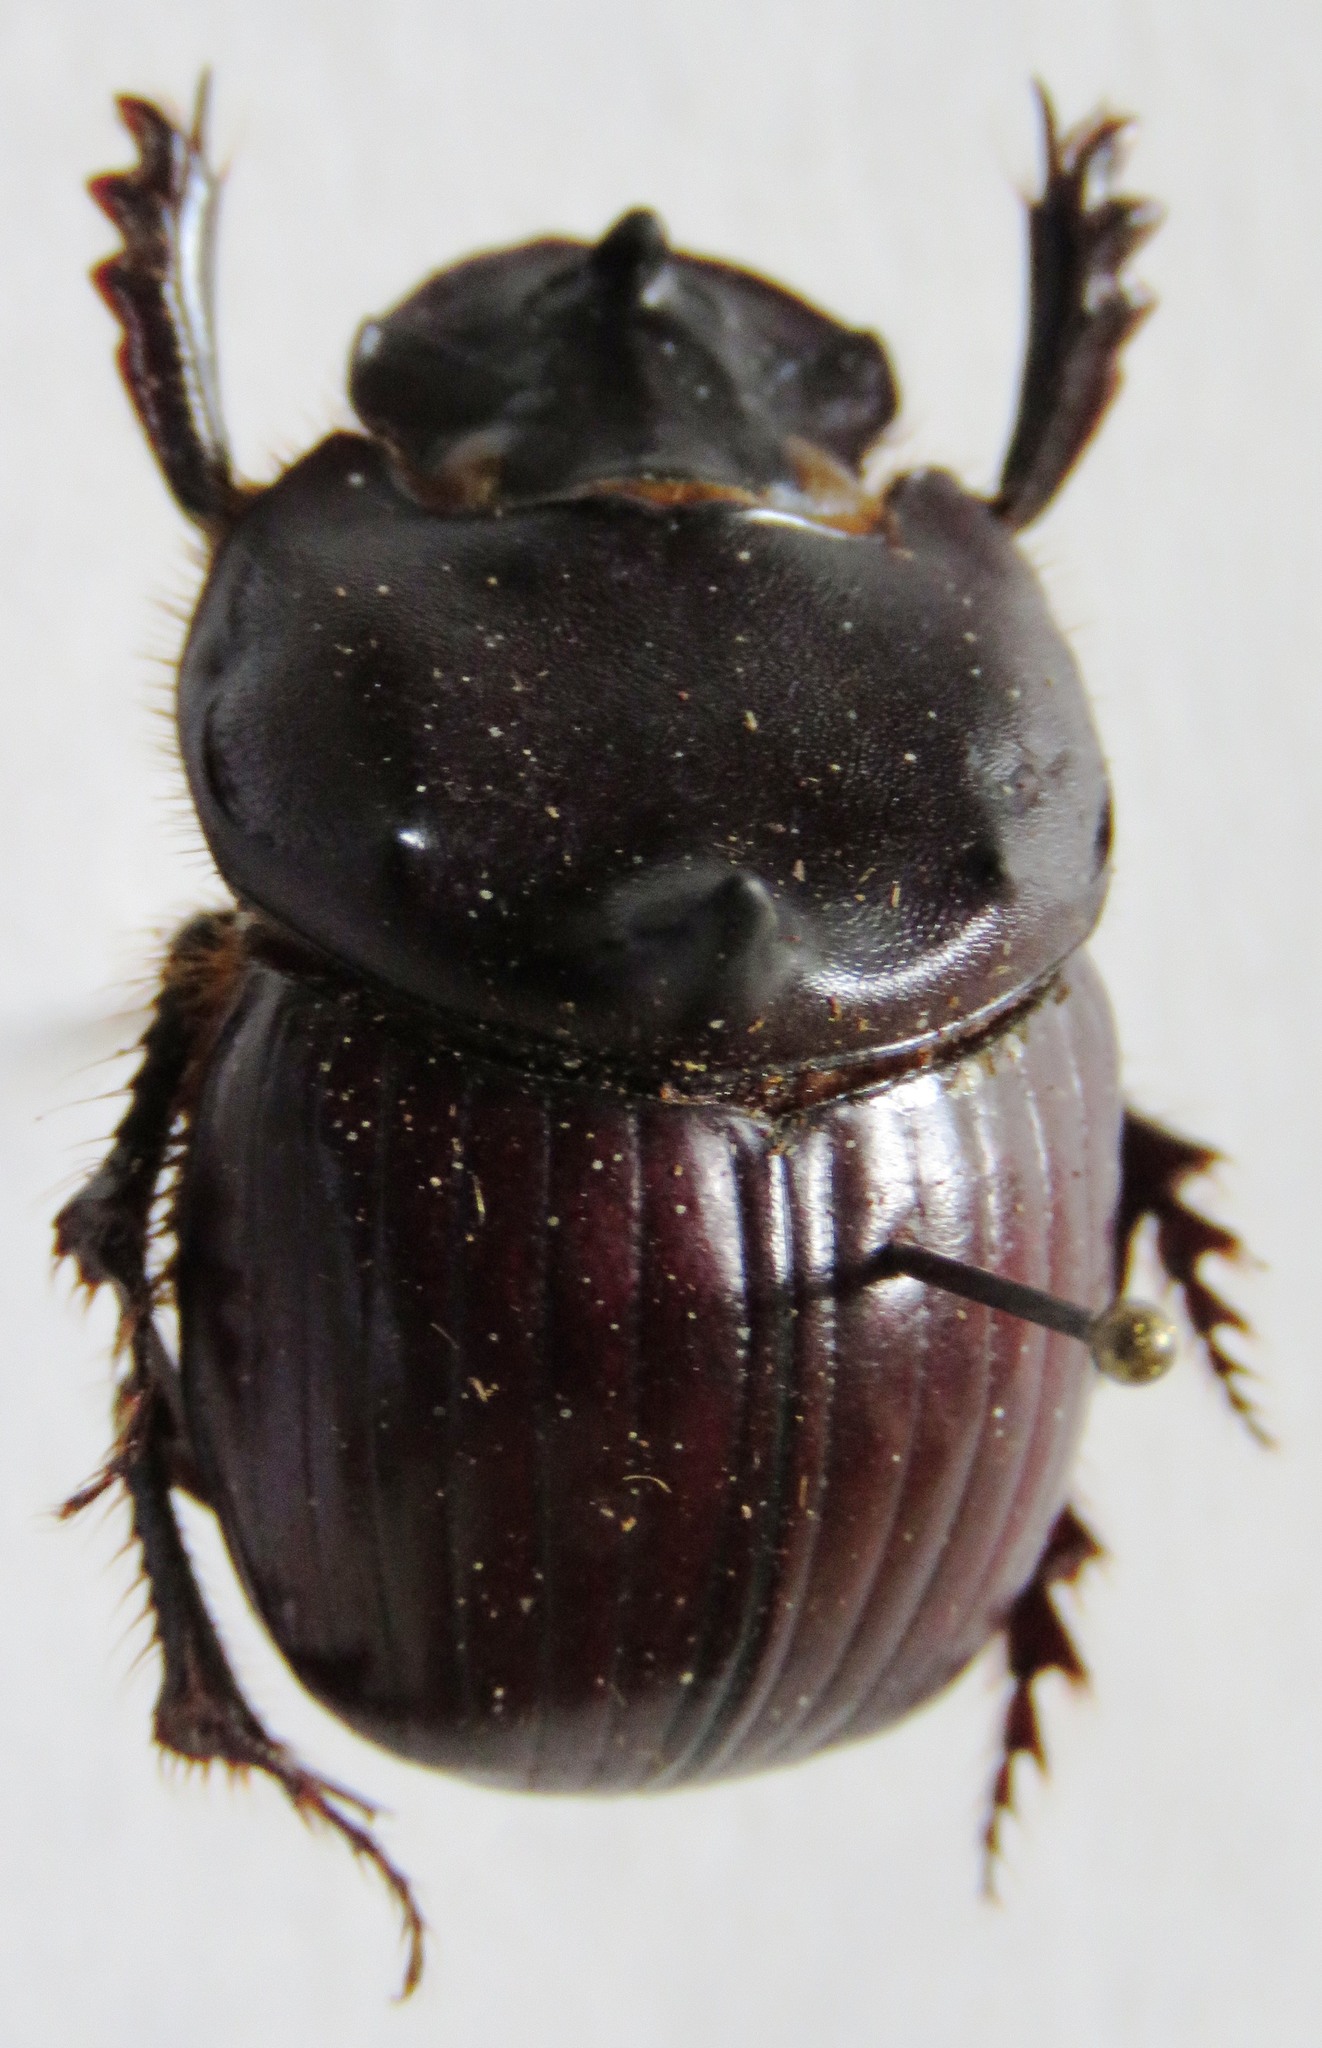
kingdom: Animalia
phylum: Arthropoda
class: Insecta
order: Coleoptera
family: Scarabaeidae
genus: Dichotomius
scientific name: Dichotomius satanas
